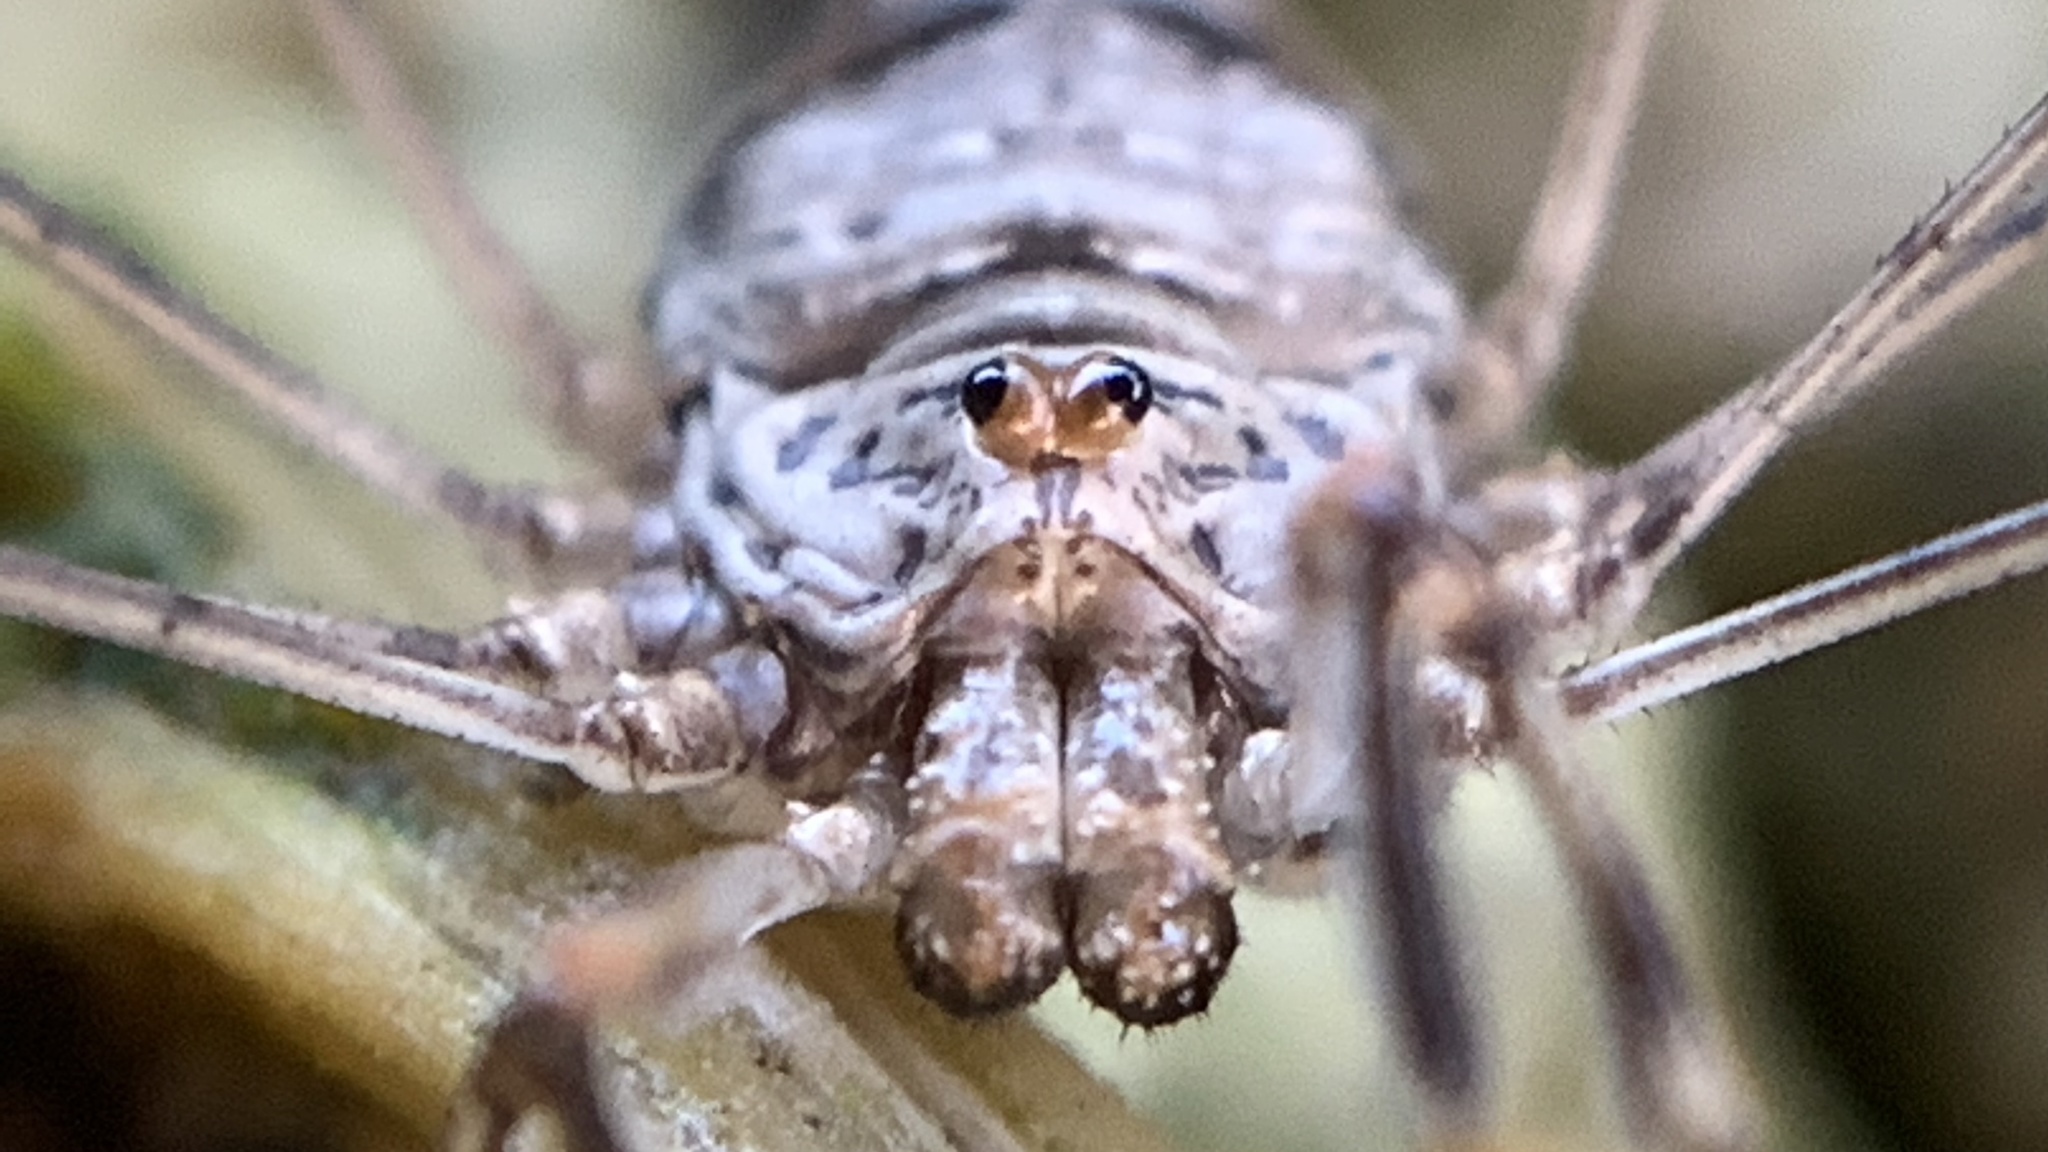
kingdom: Animalia
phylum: Arthropoda
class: Arachnida
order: Opiliones
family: Phalangiidae
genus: Dicranopalpus
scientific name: Dicranopalpus ramosus
